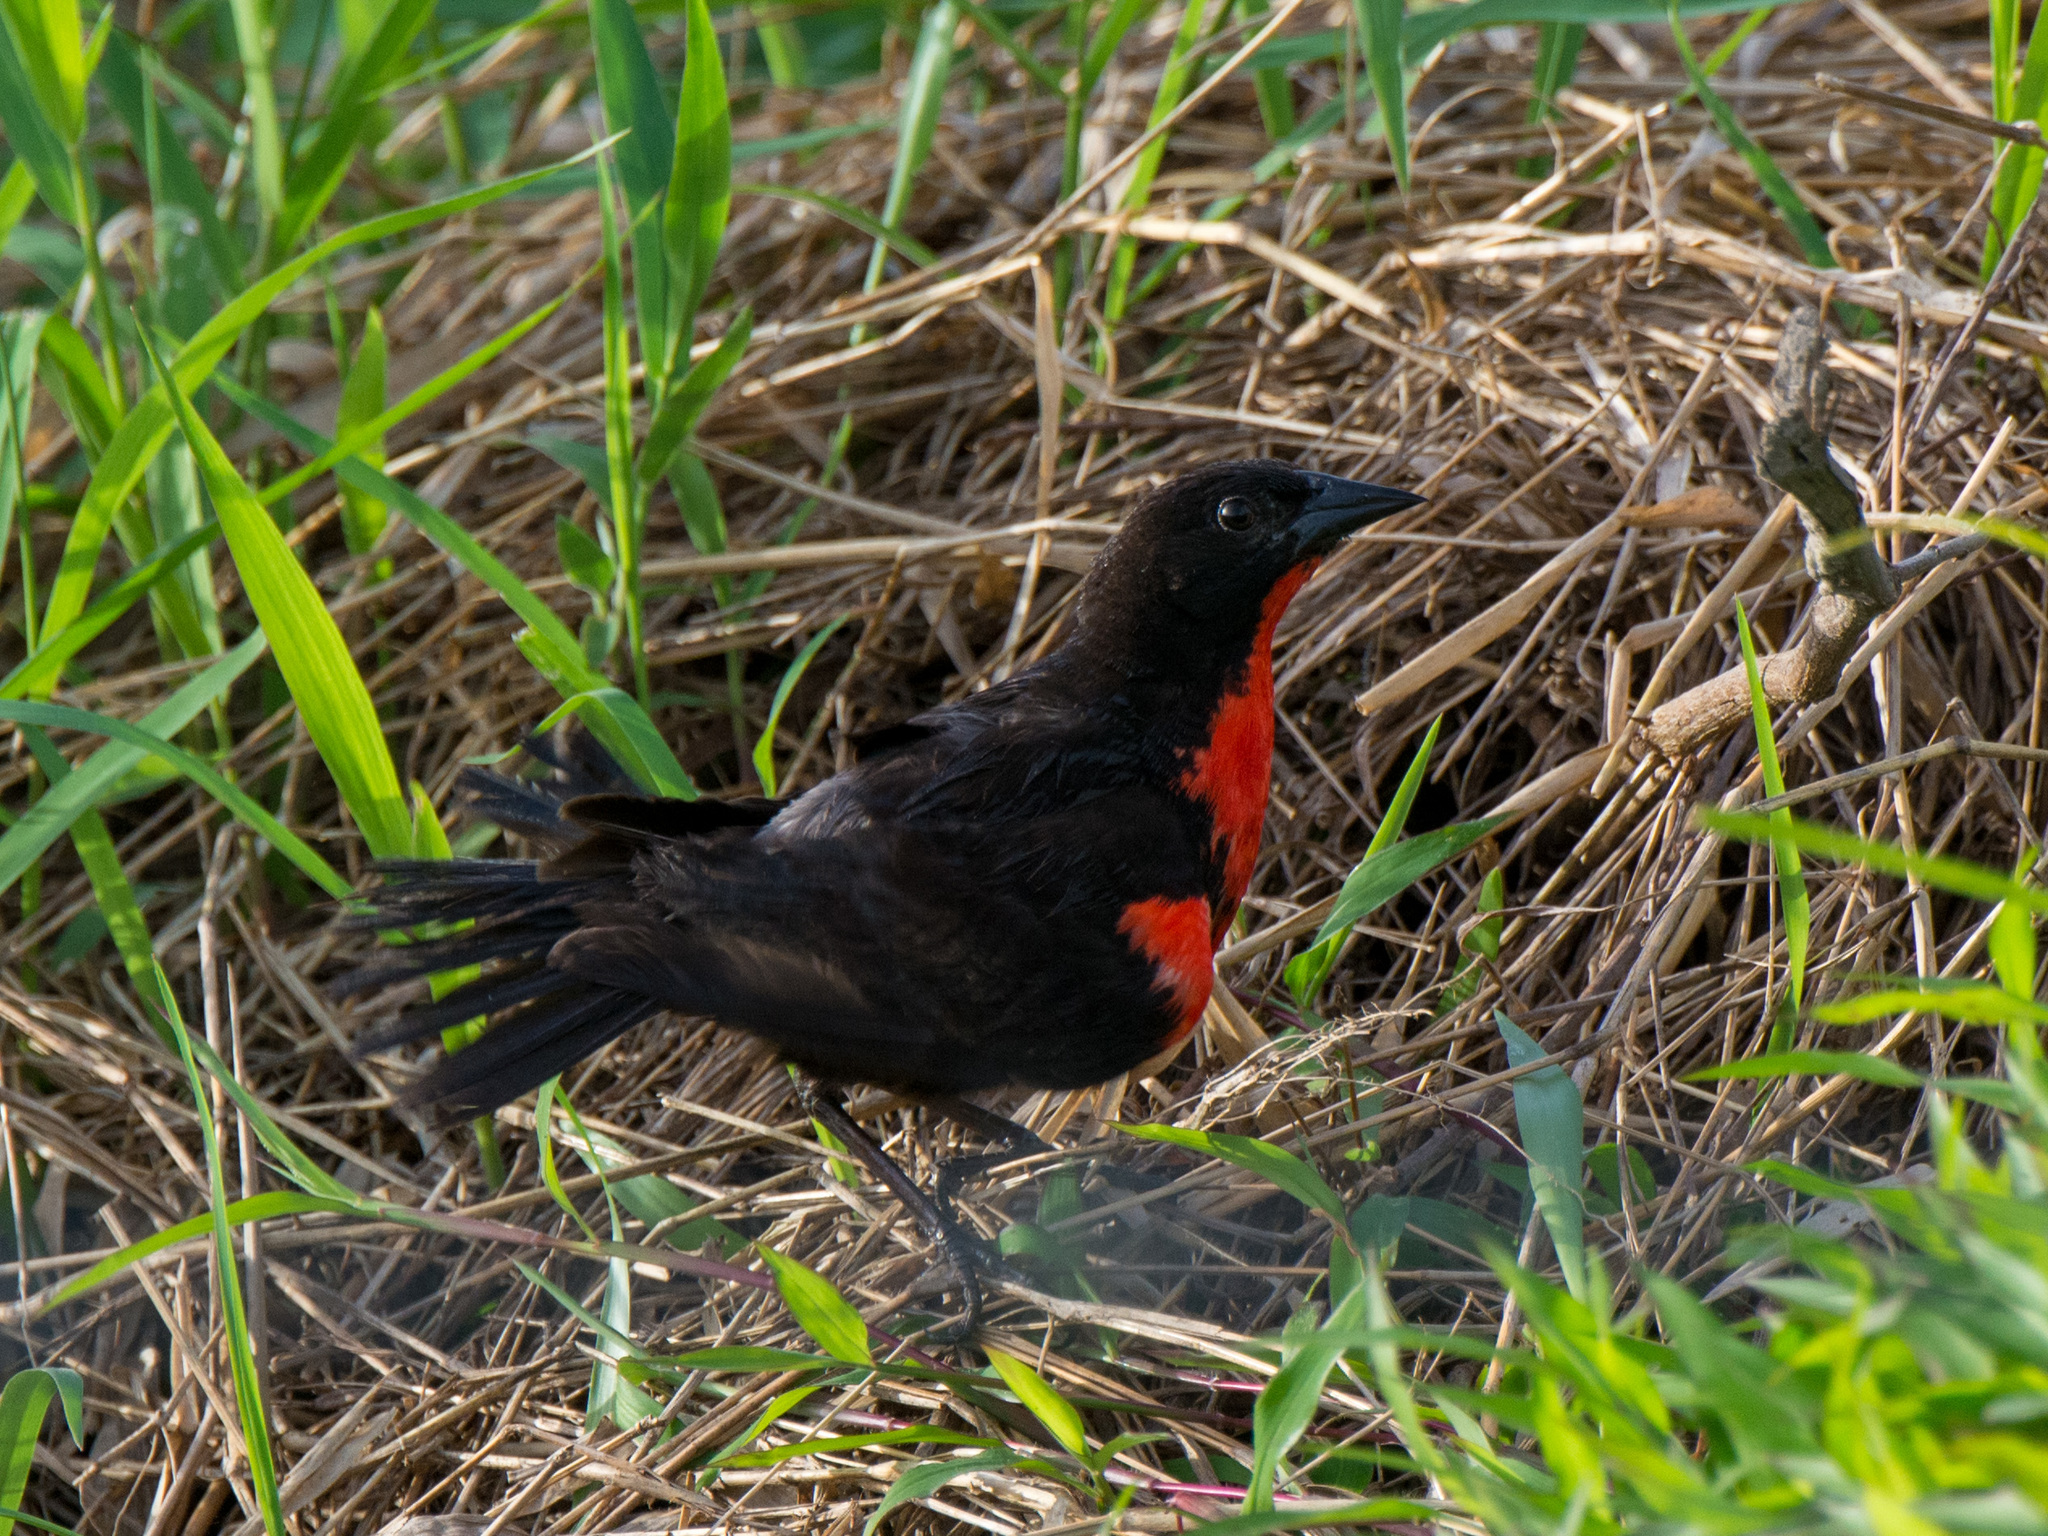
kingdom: Animalia
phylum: Chordata
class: Aves
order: Passeriformes
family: Icteridae
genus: Sturnella
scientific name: Sturnella militaris
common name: Red-breasted blackbird
